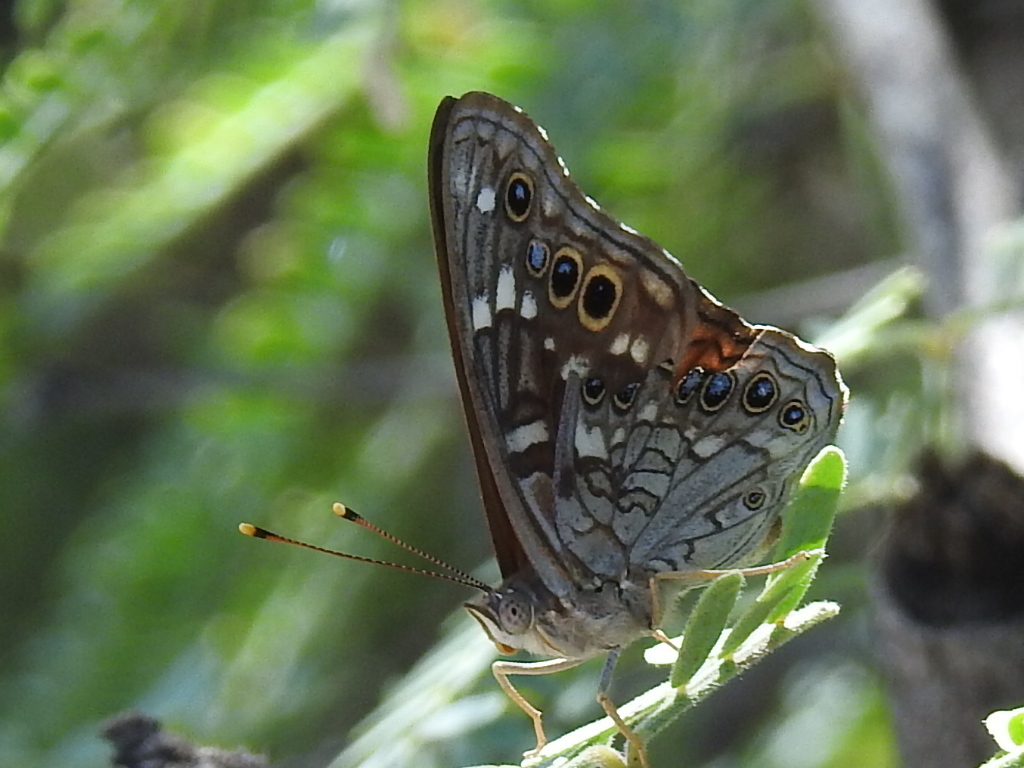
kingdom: Animalia
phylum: Arthropoda
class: Insecta
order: Lepidoptera
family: Nymphalidae
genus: Asterocampa
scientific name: Asterocampa leilia
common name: Empress leilia
